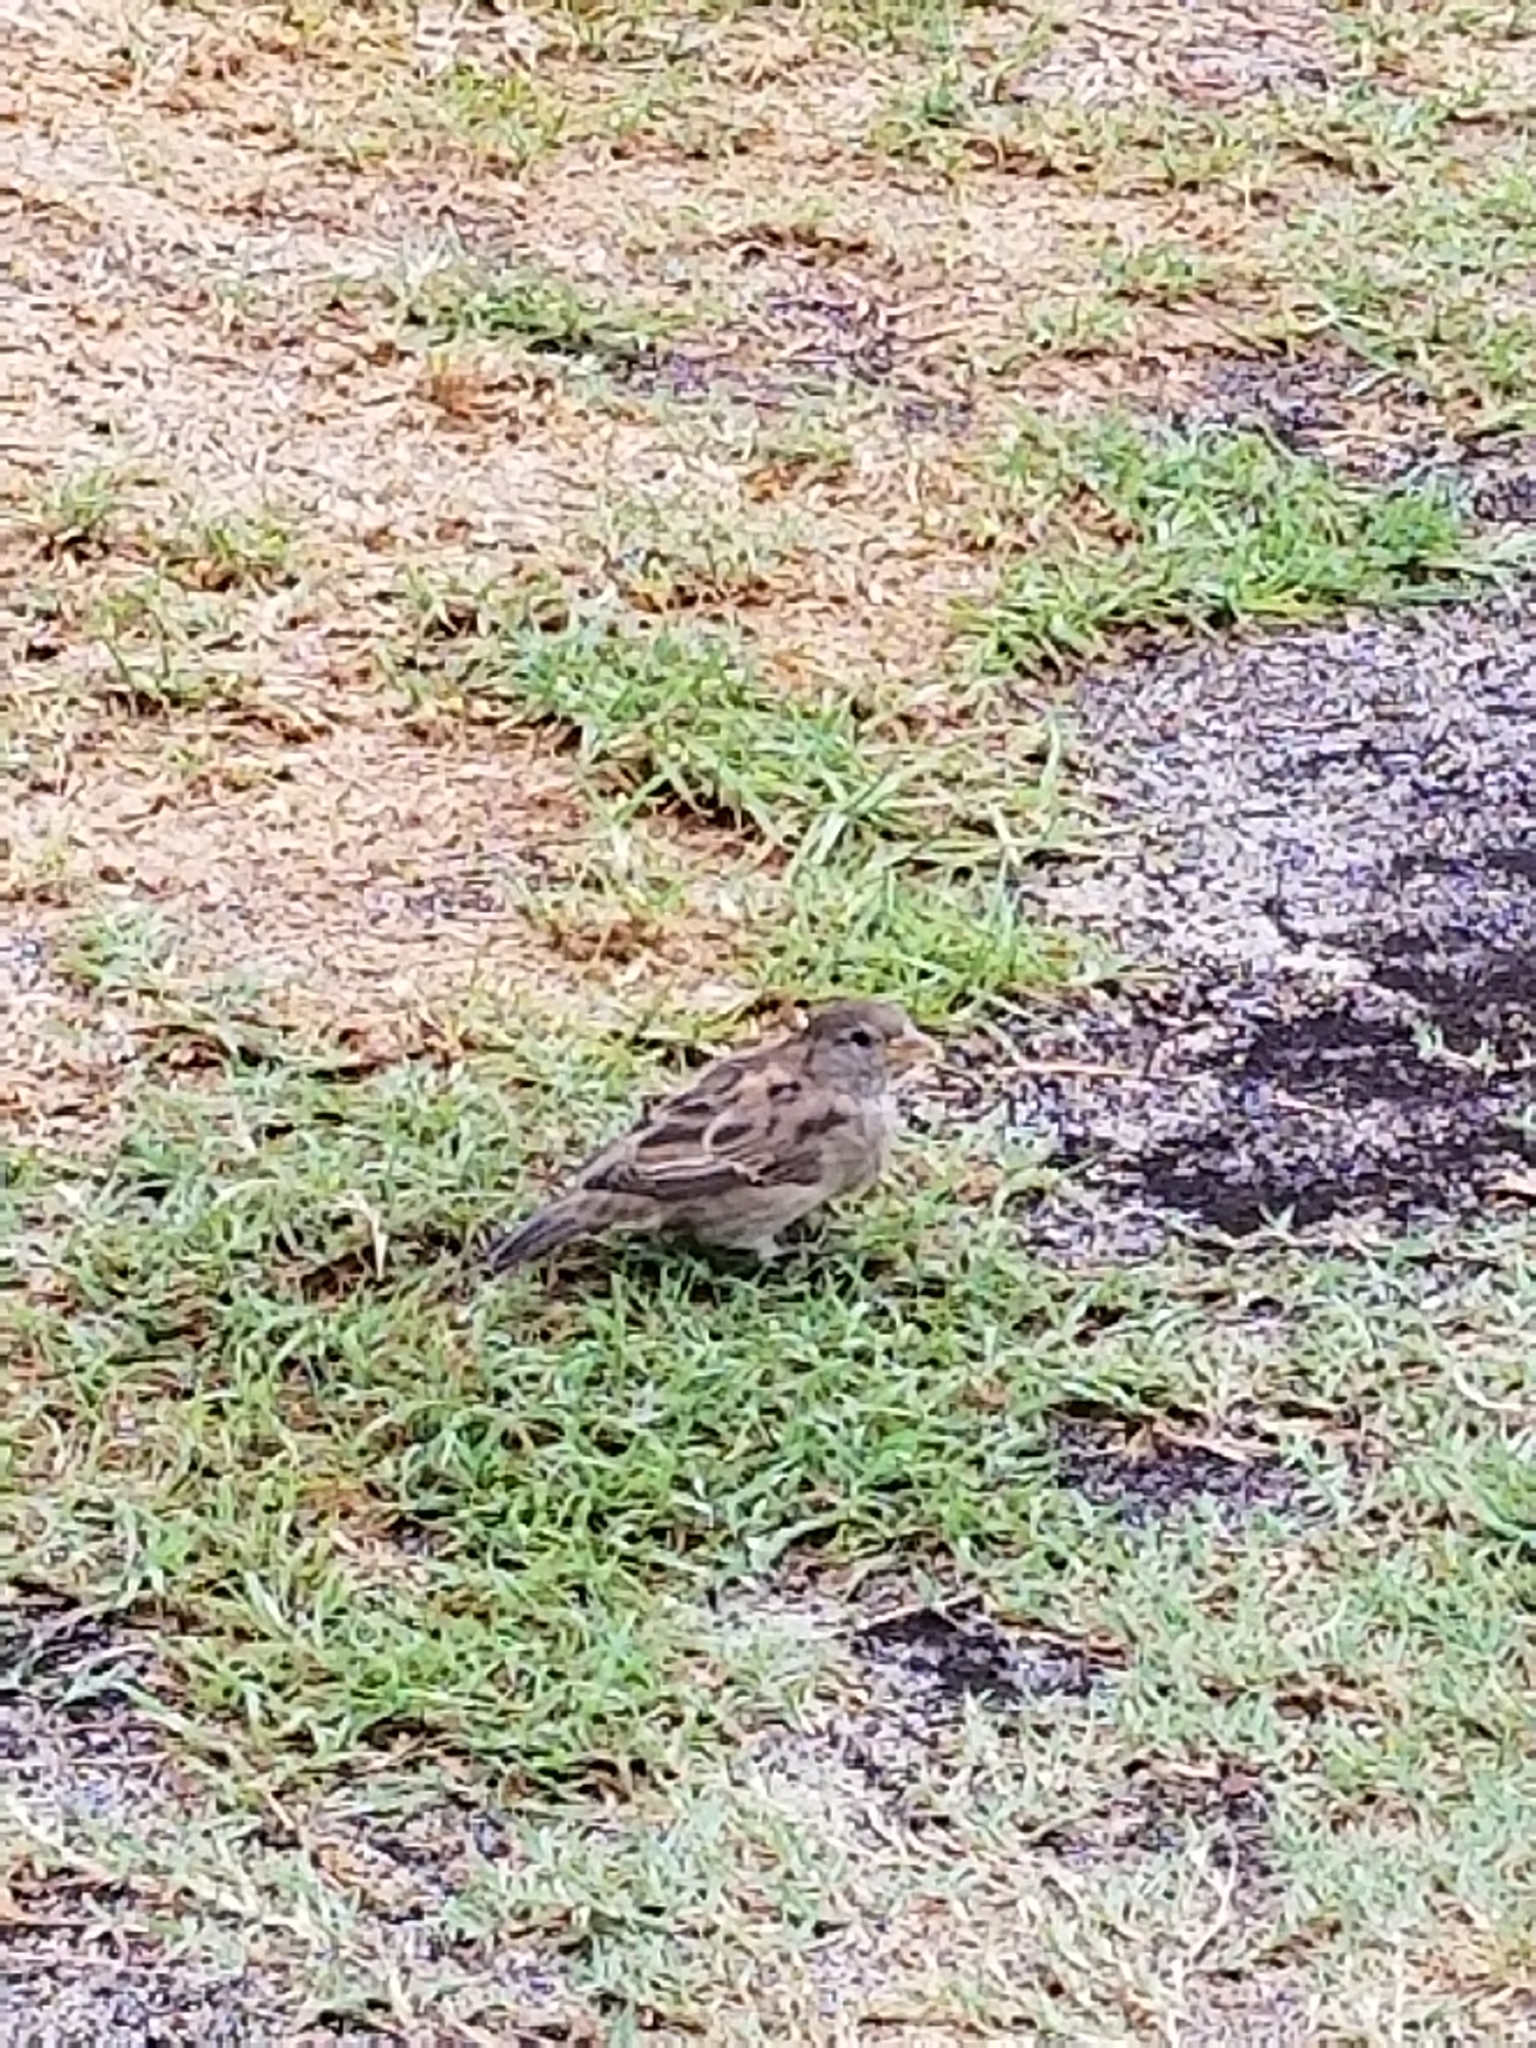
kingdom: Animalia
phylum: Chordata
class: Aves
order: Passeriformes
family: Passeridae
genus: Passer
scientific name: Passer domesticus
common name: House sparrow
